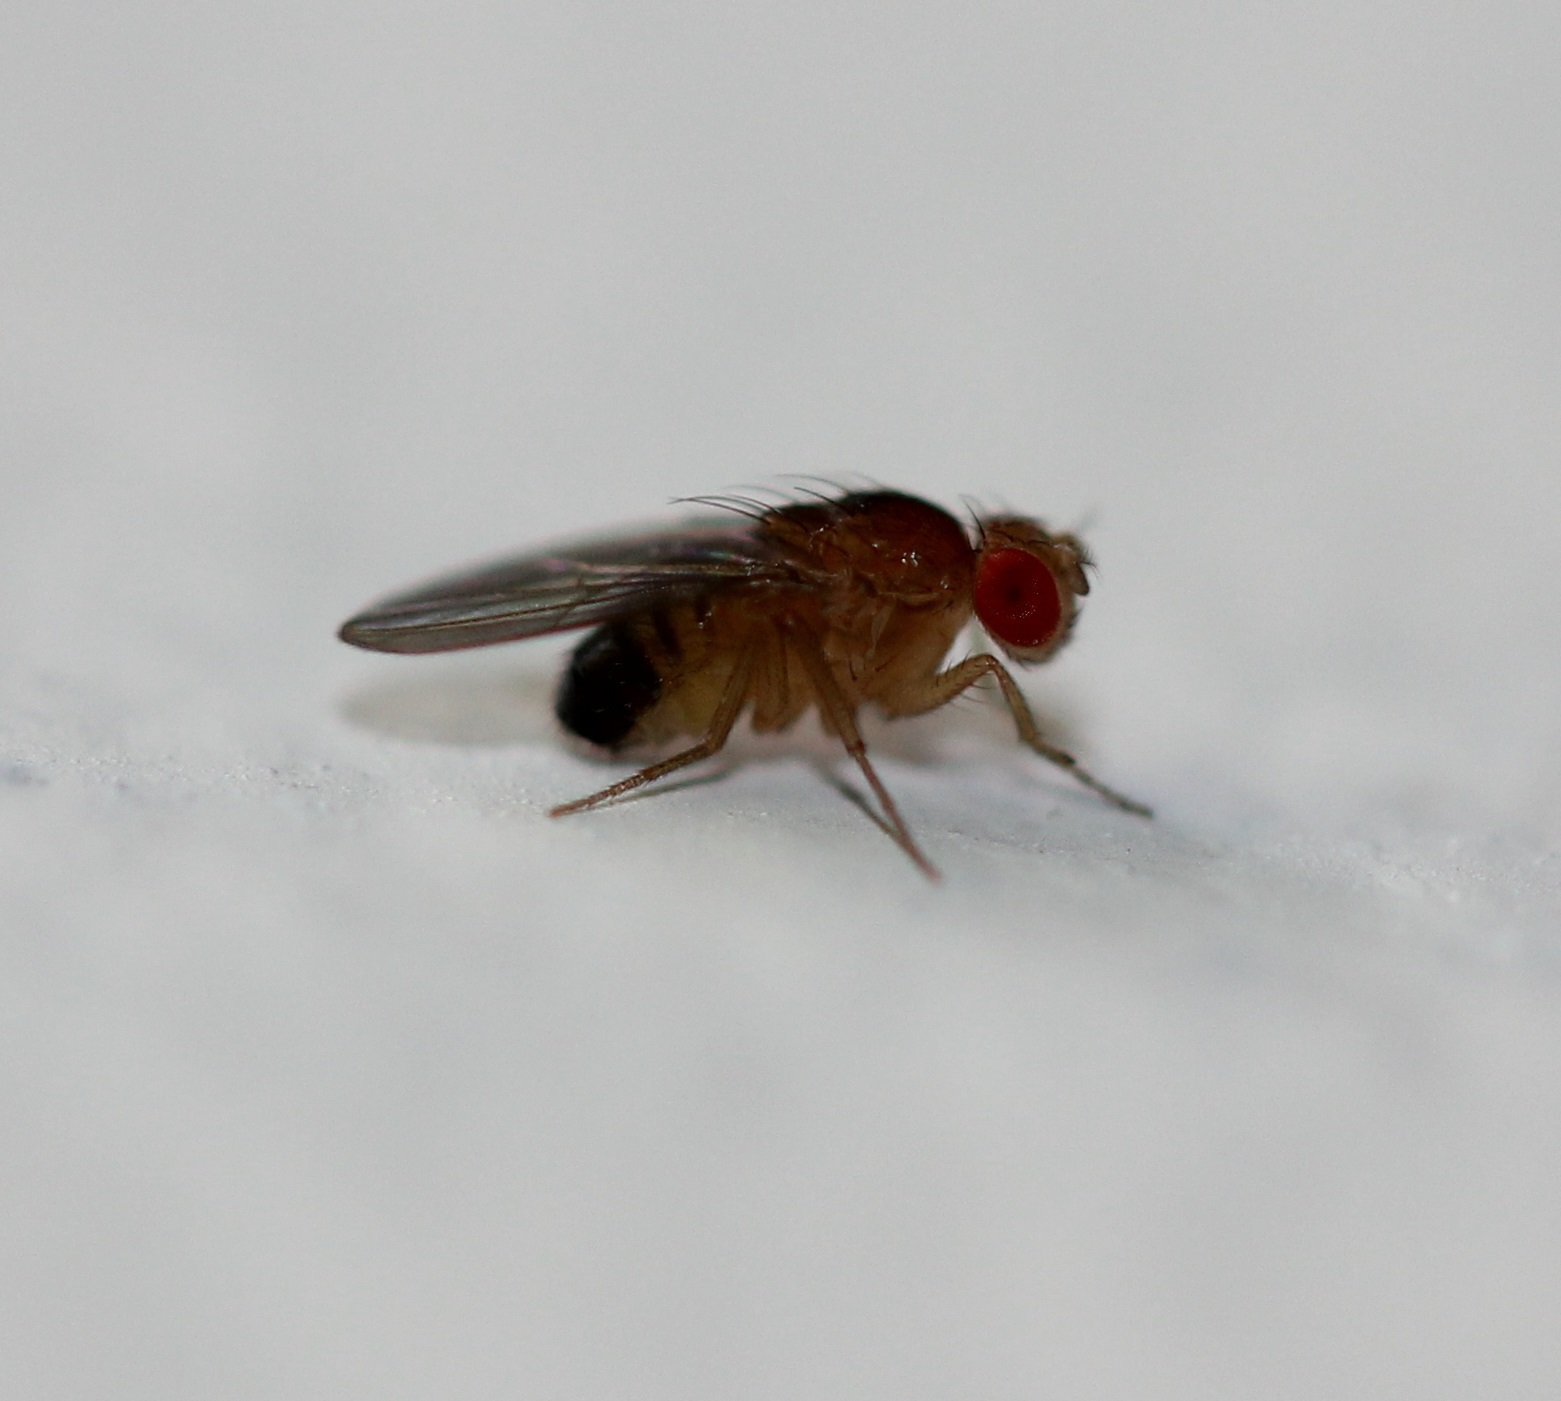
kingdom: Animalia
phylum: Arthropoda
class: Insecta
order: Diptera
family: Drosophilidae
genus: Drosophila
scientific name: Drosophila melanogaster
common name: Pomace fly
